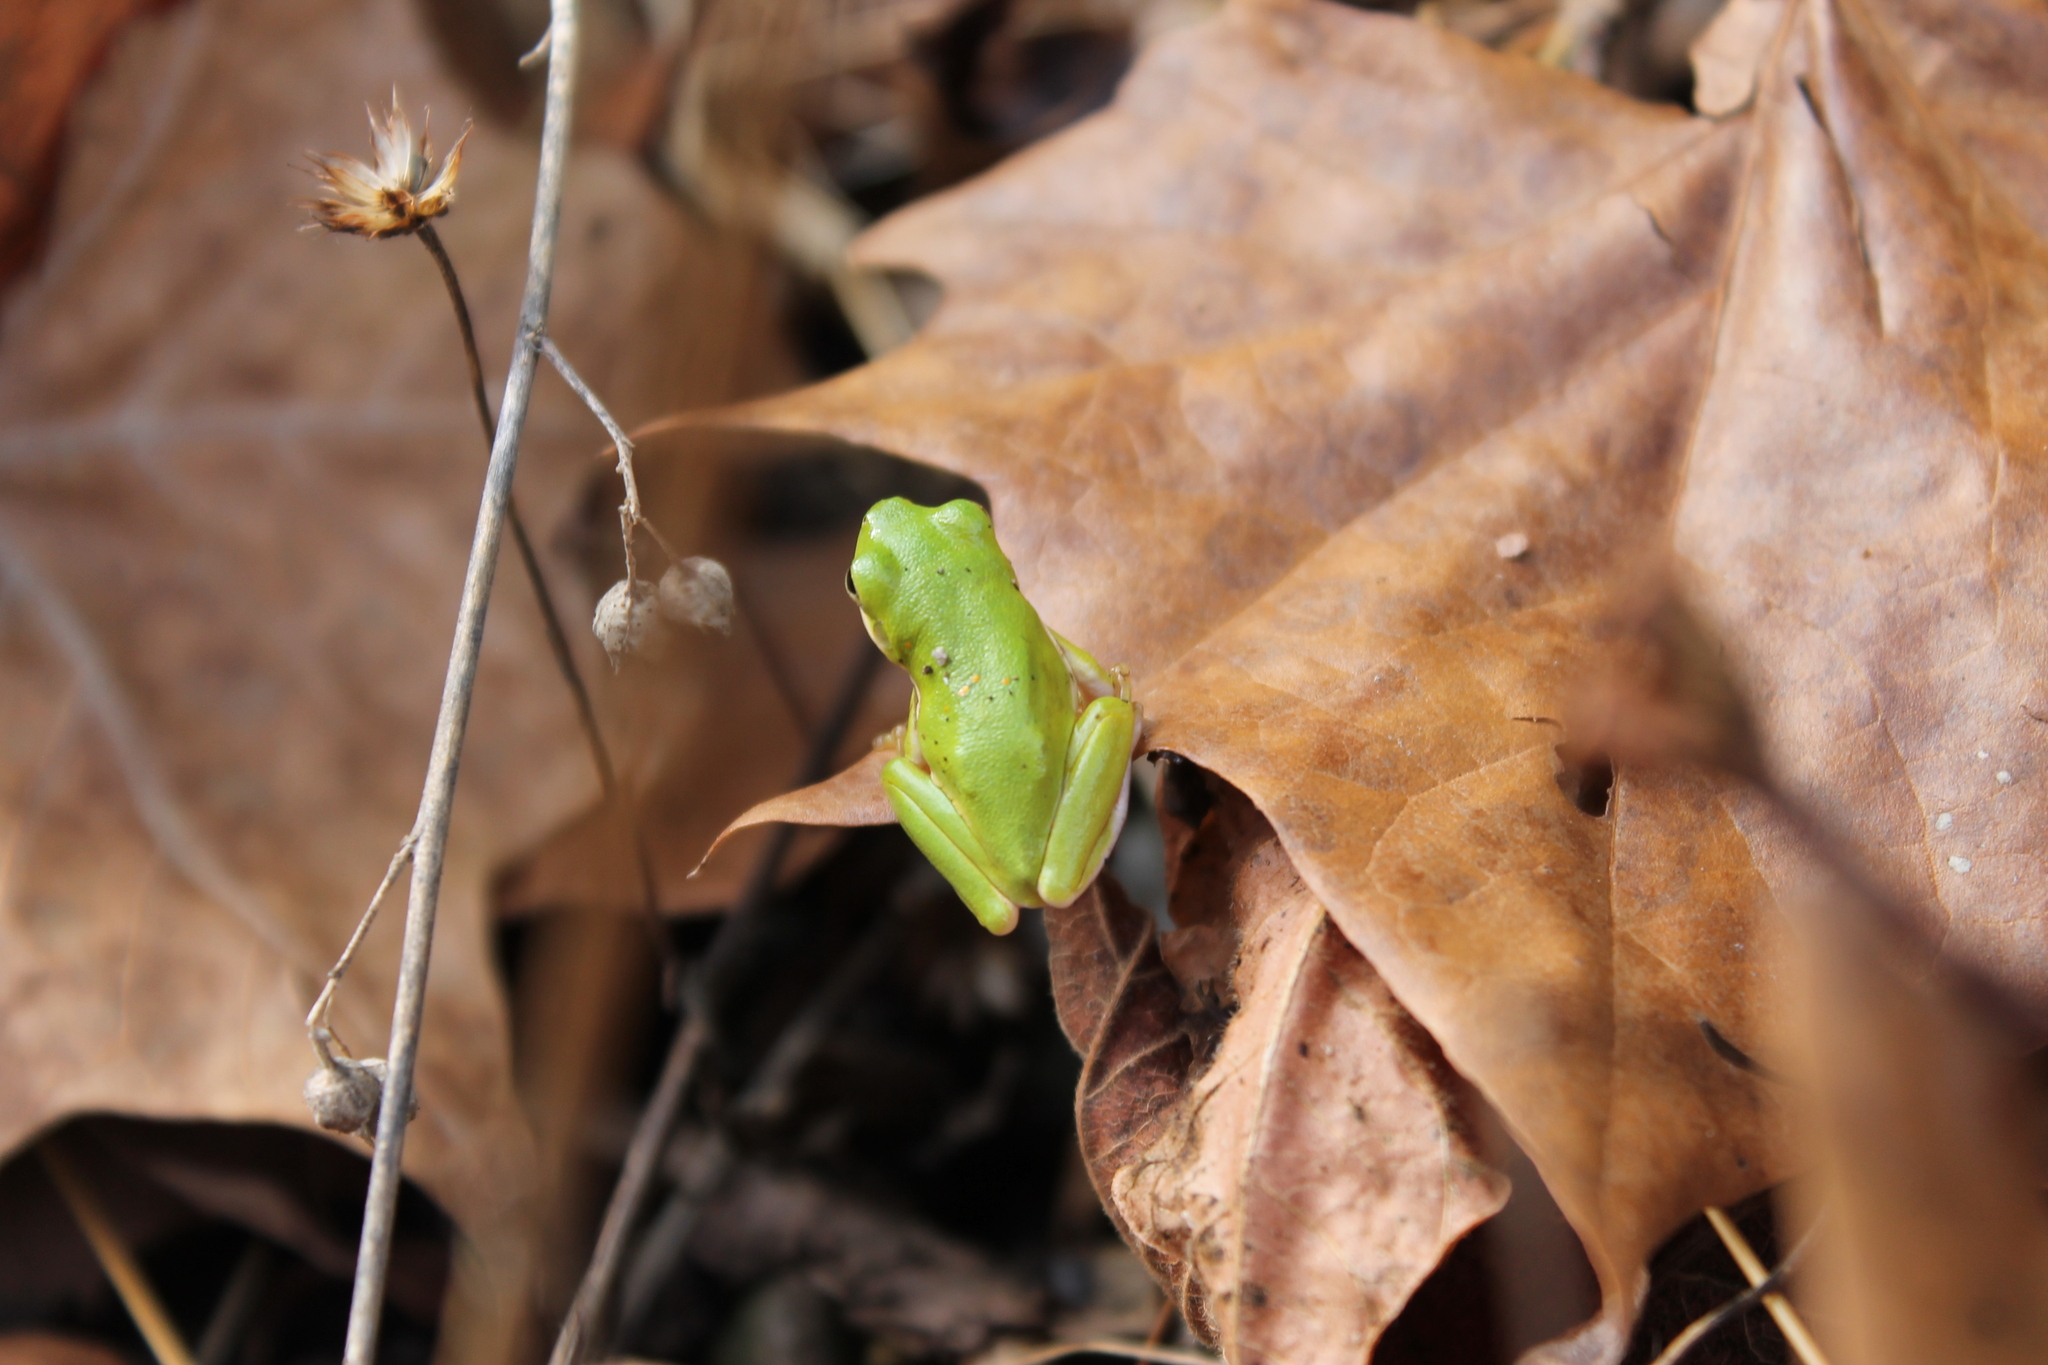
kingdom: Animalia
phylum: Chordata
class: Amphibia
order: Anura
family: Hylidae
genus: Dryophytes
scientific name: Dryophytes cinereus
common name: Green treefrog
